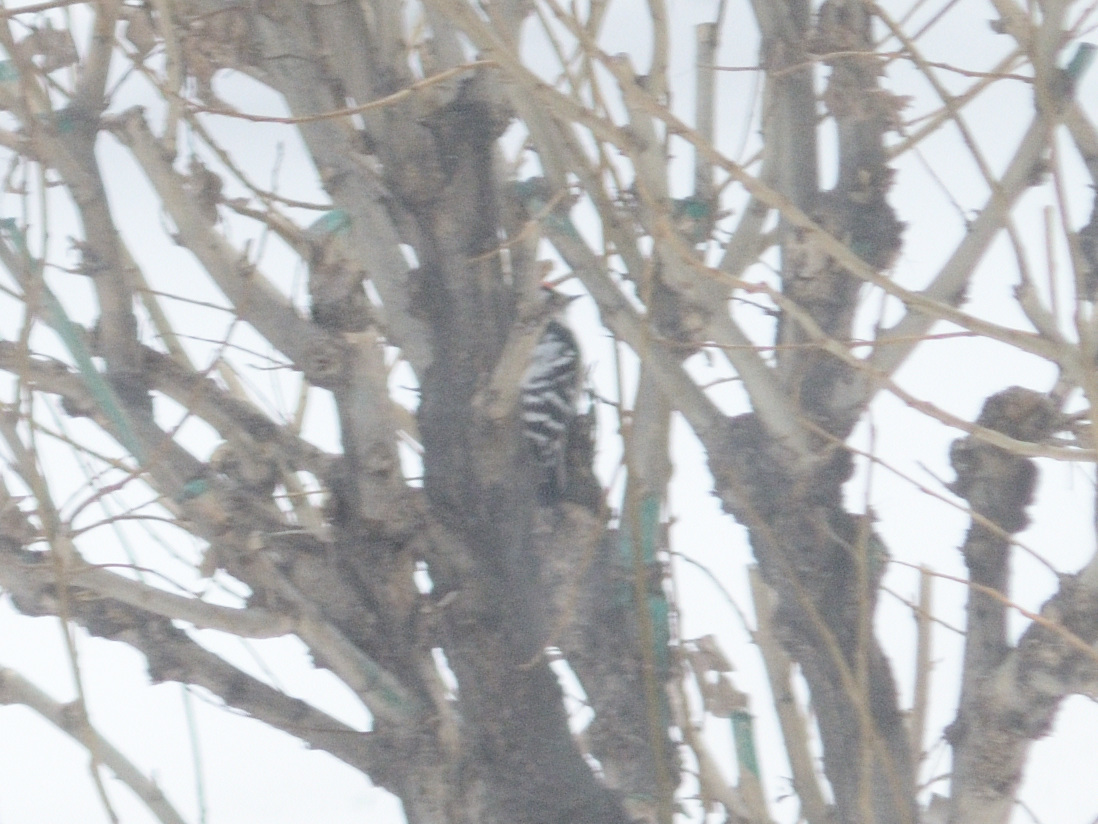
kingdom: Animalia
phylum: Chordata
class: Aves
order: Piciformes
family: Picidae
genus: Dryobates
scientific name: Dryobates minor
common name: Lesser spotted woodpecker
